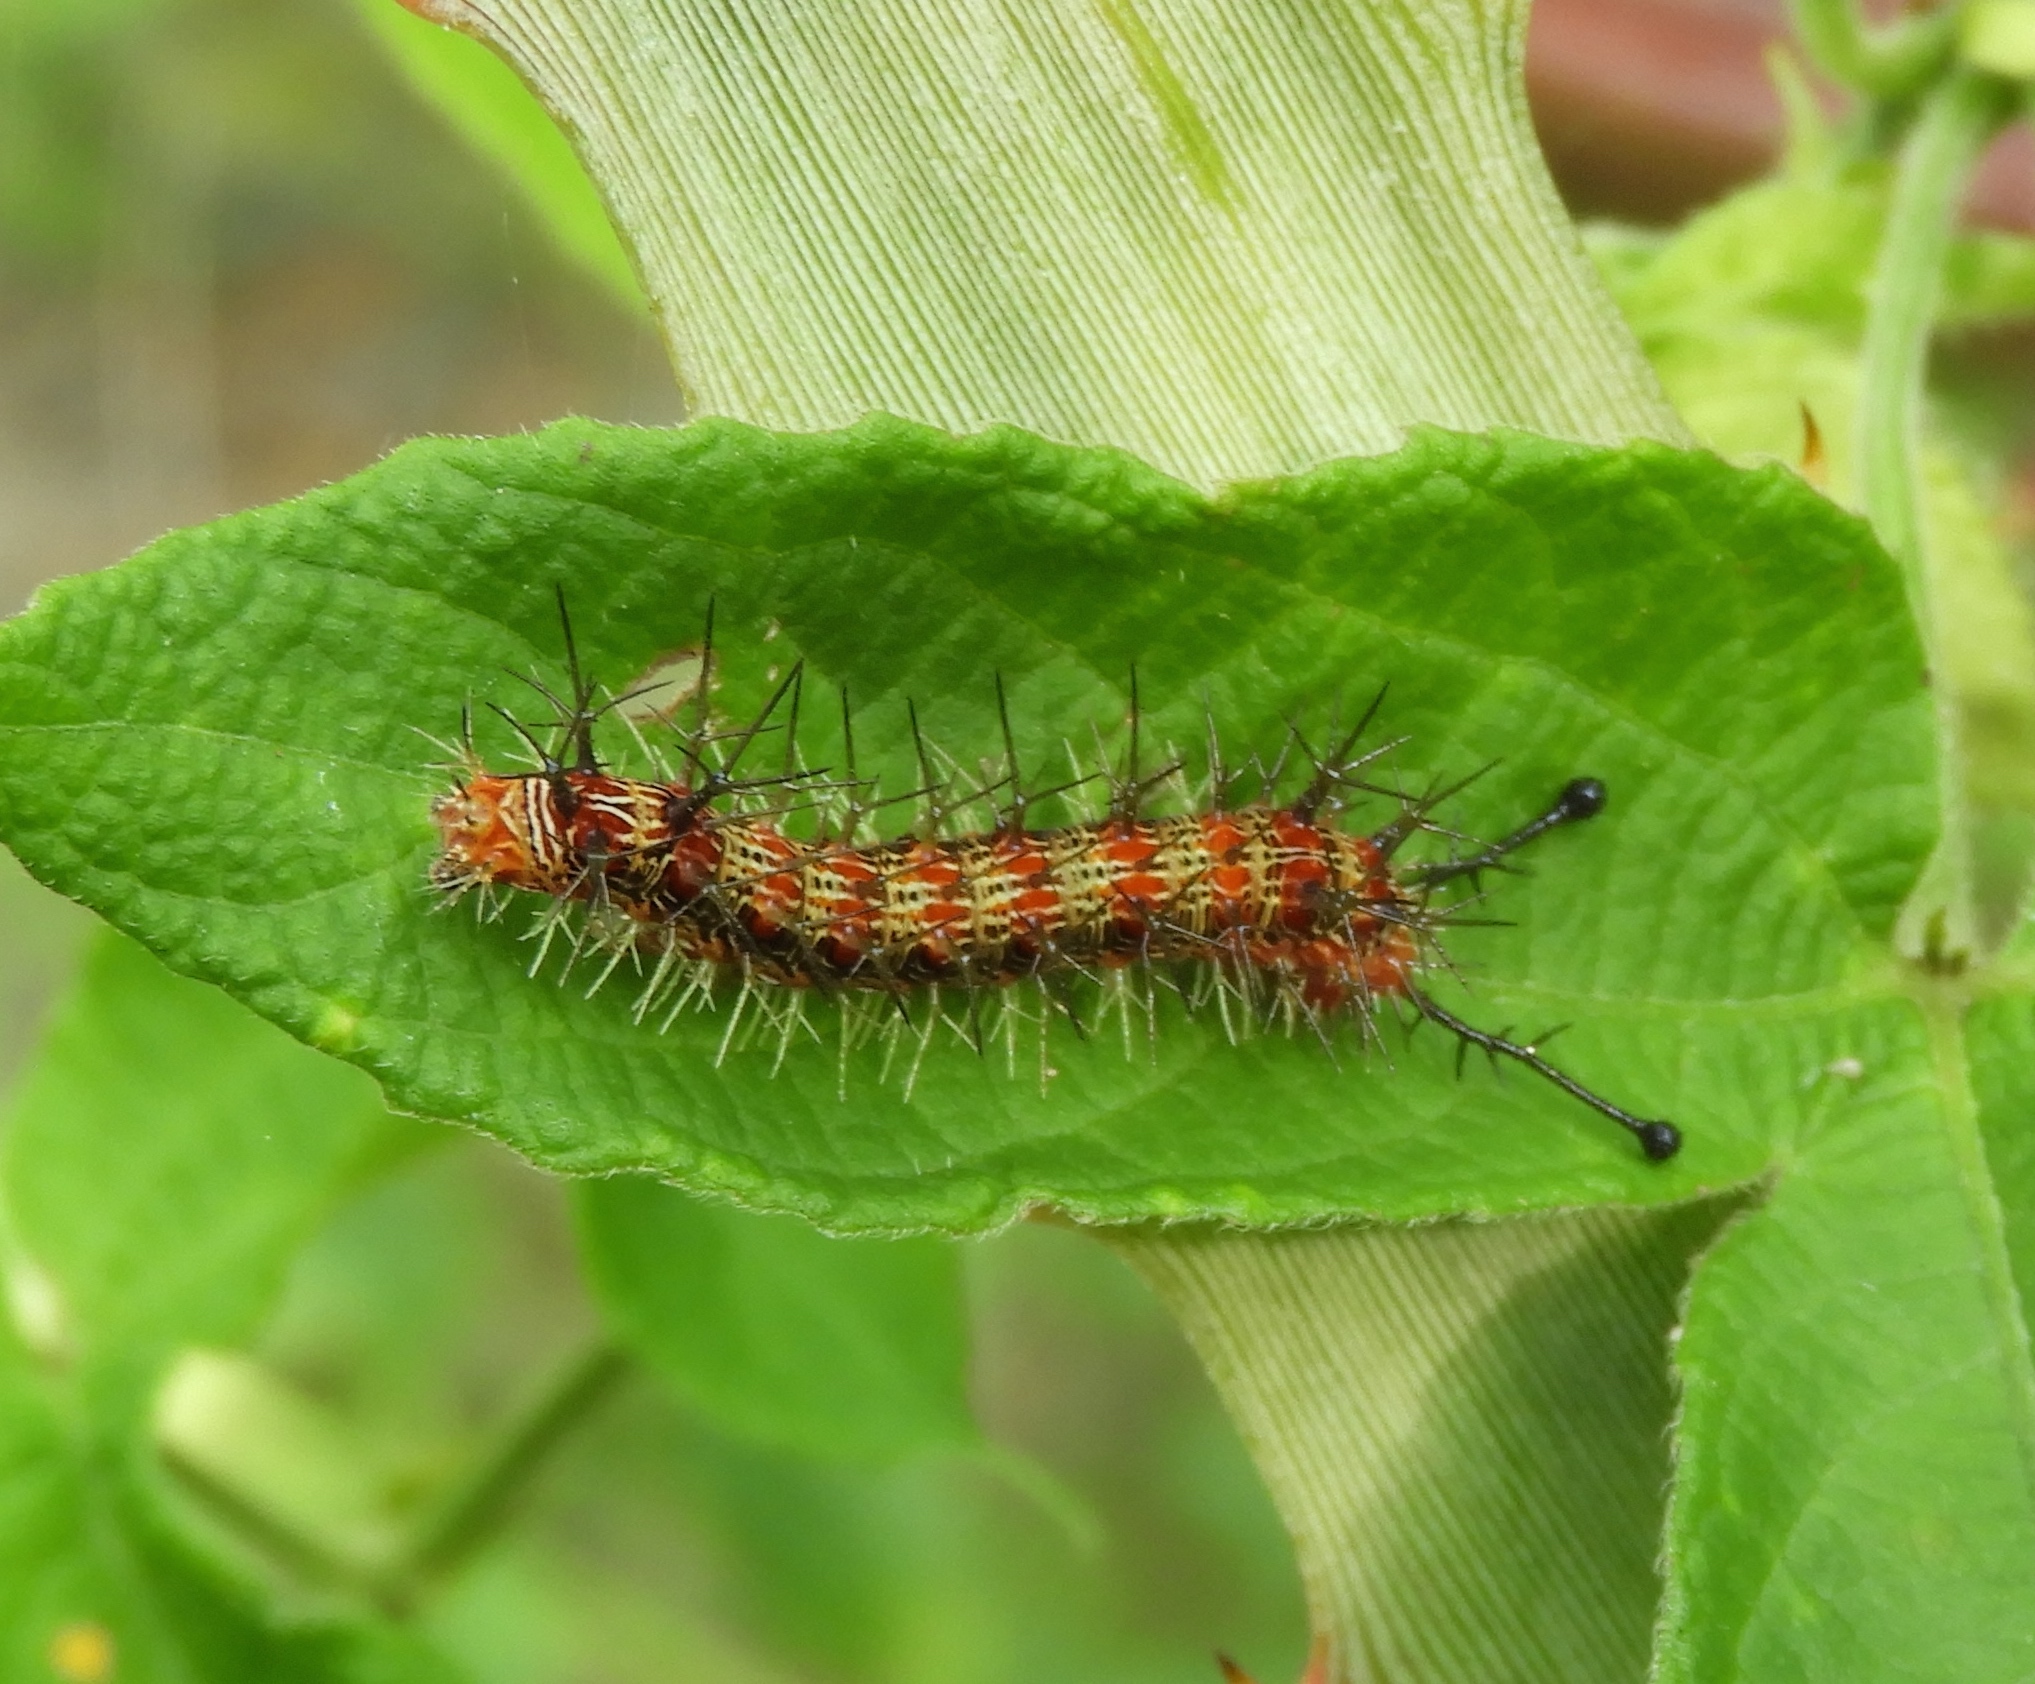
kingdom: Animalia
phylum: Arthropoda
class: Insecta
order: Lepidoptera
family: Nymphalidae
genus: Hamadryas
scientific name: Hamadryas februa
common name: Gray cracker
